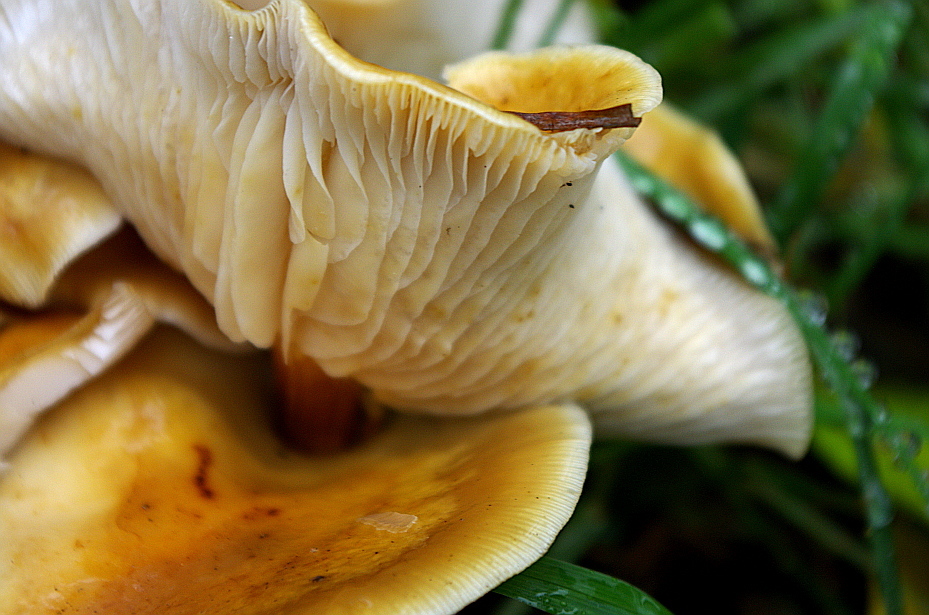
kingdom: Fungi
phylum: Basidiomycota
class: Agaricomycetes
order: Agaricales
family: Physalacriaceae
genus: Flammulina
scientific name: Flammulina
